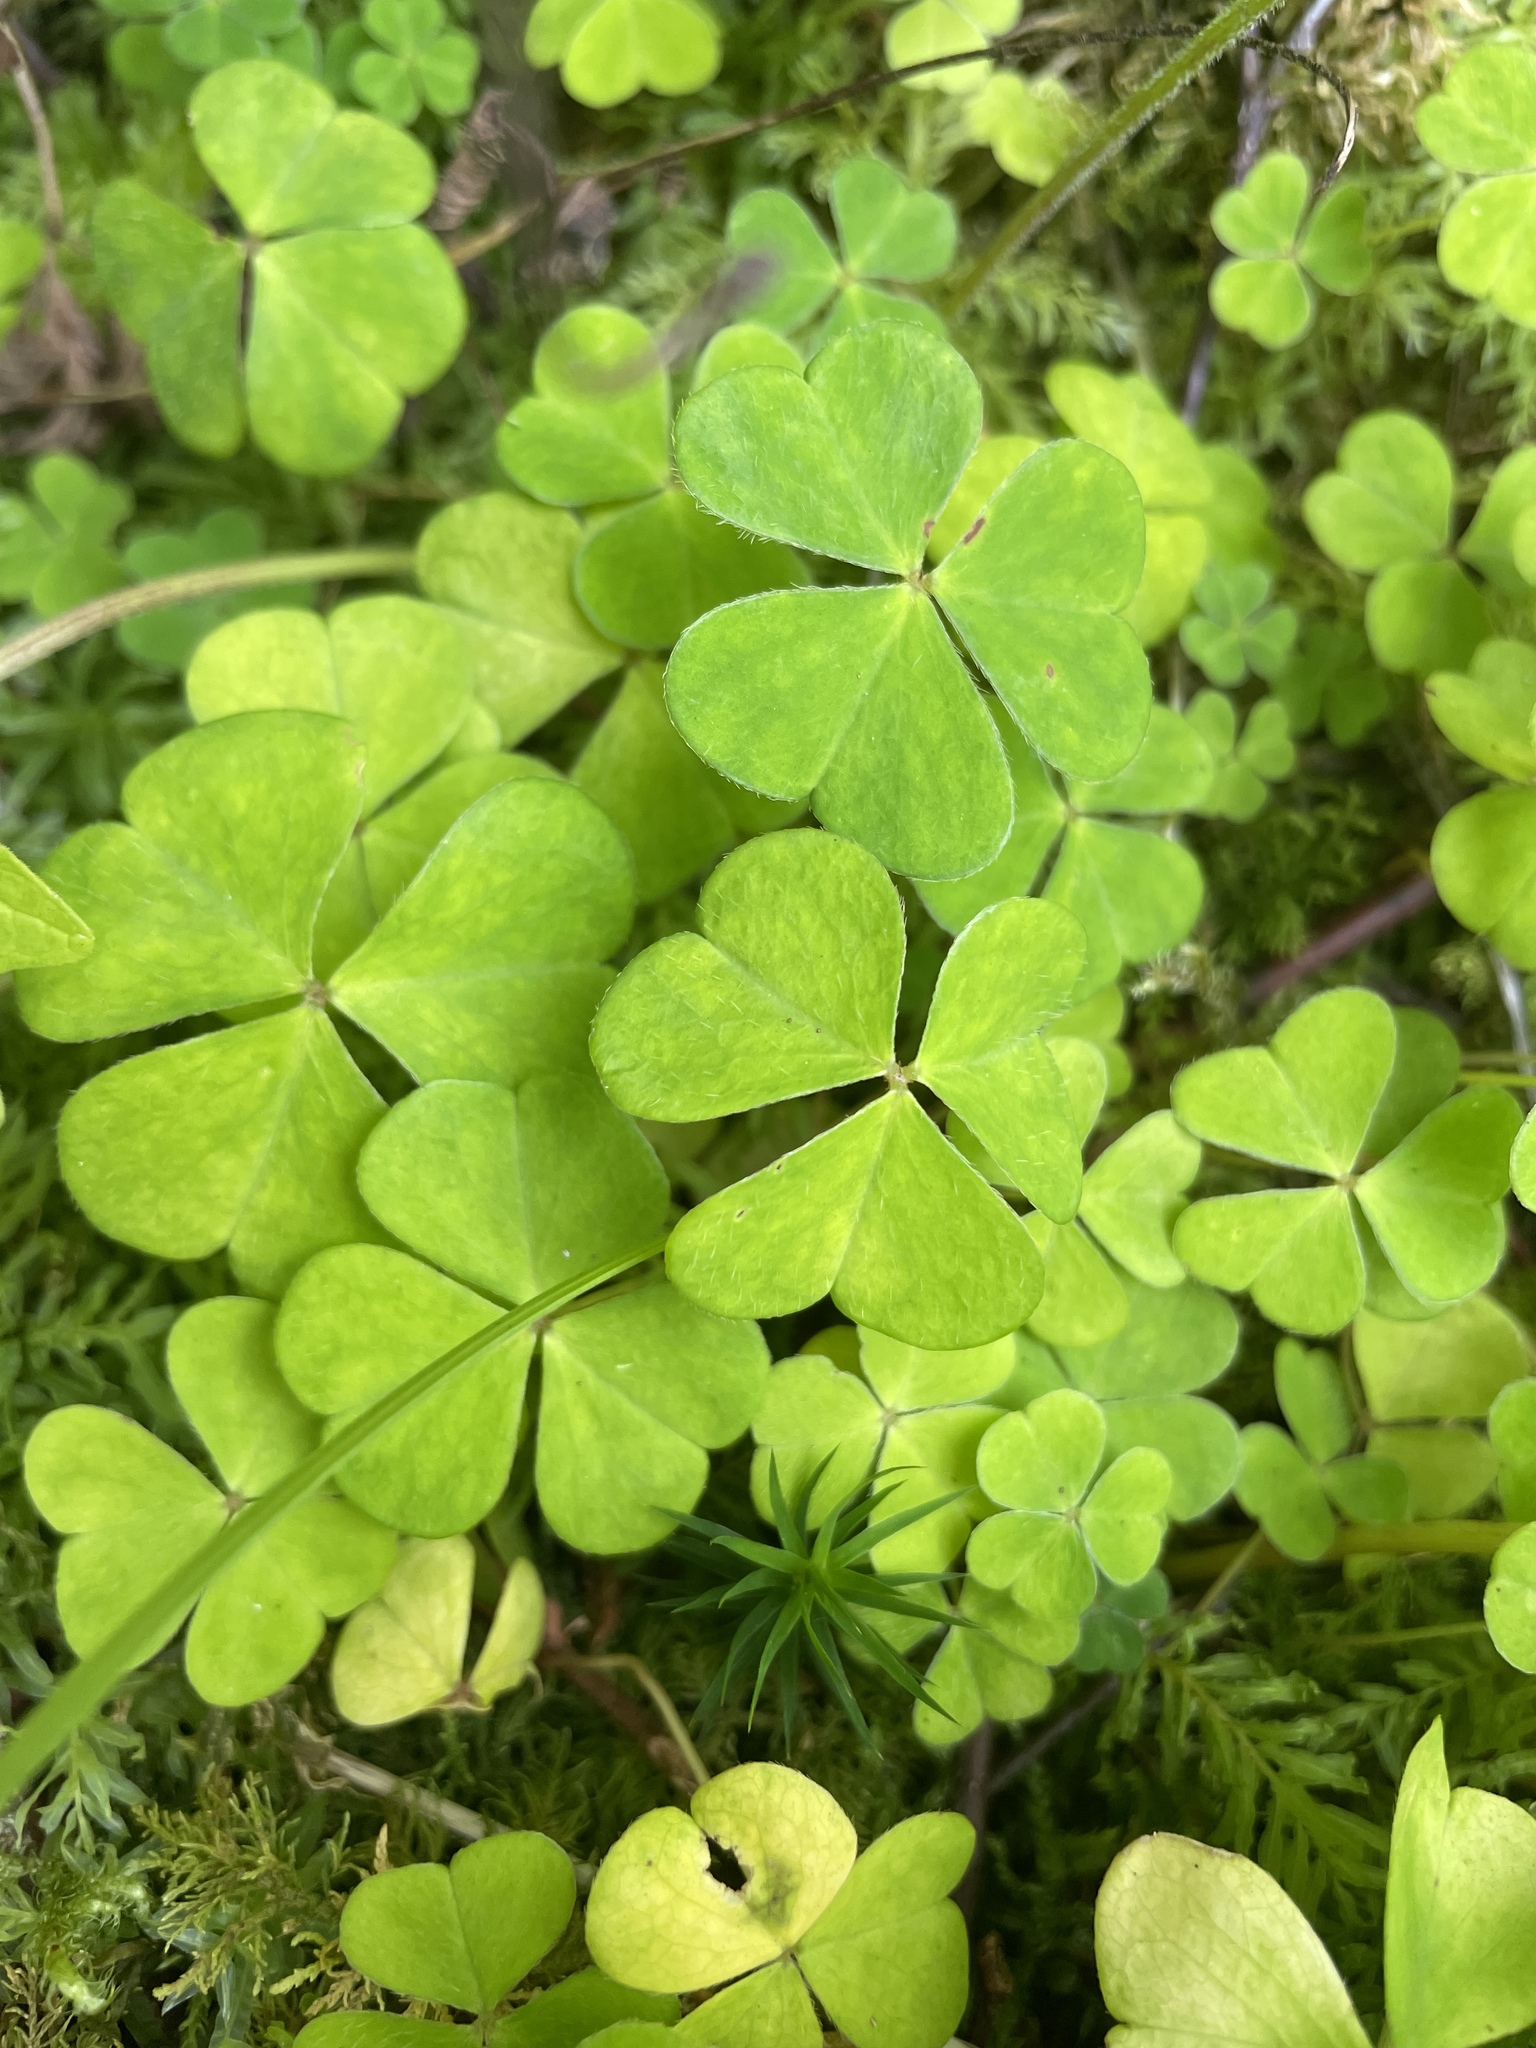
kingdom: Plantae
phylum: Tracheophyta
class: Magnoliopsida
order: Oxalidales
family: Oxalidaceae
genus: Oxalis
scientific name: Oxalis acetosella
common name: Wood-sorrel
